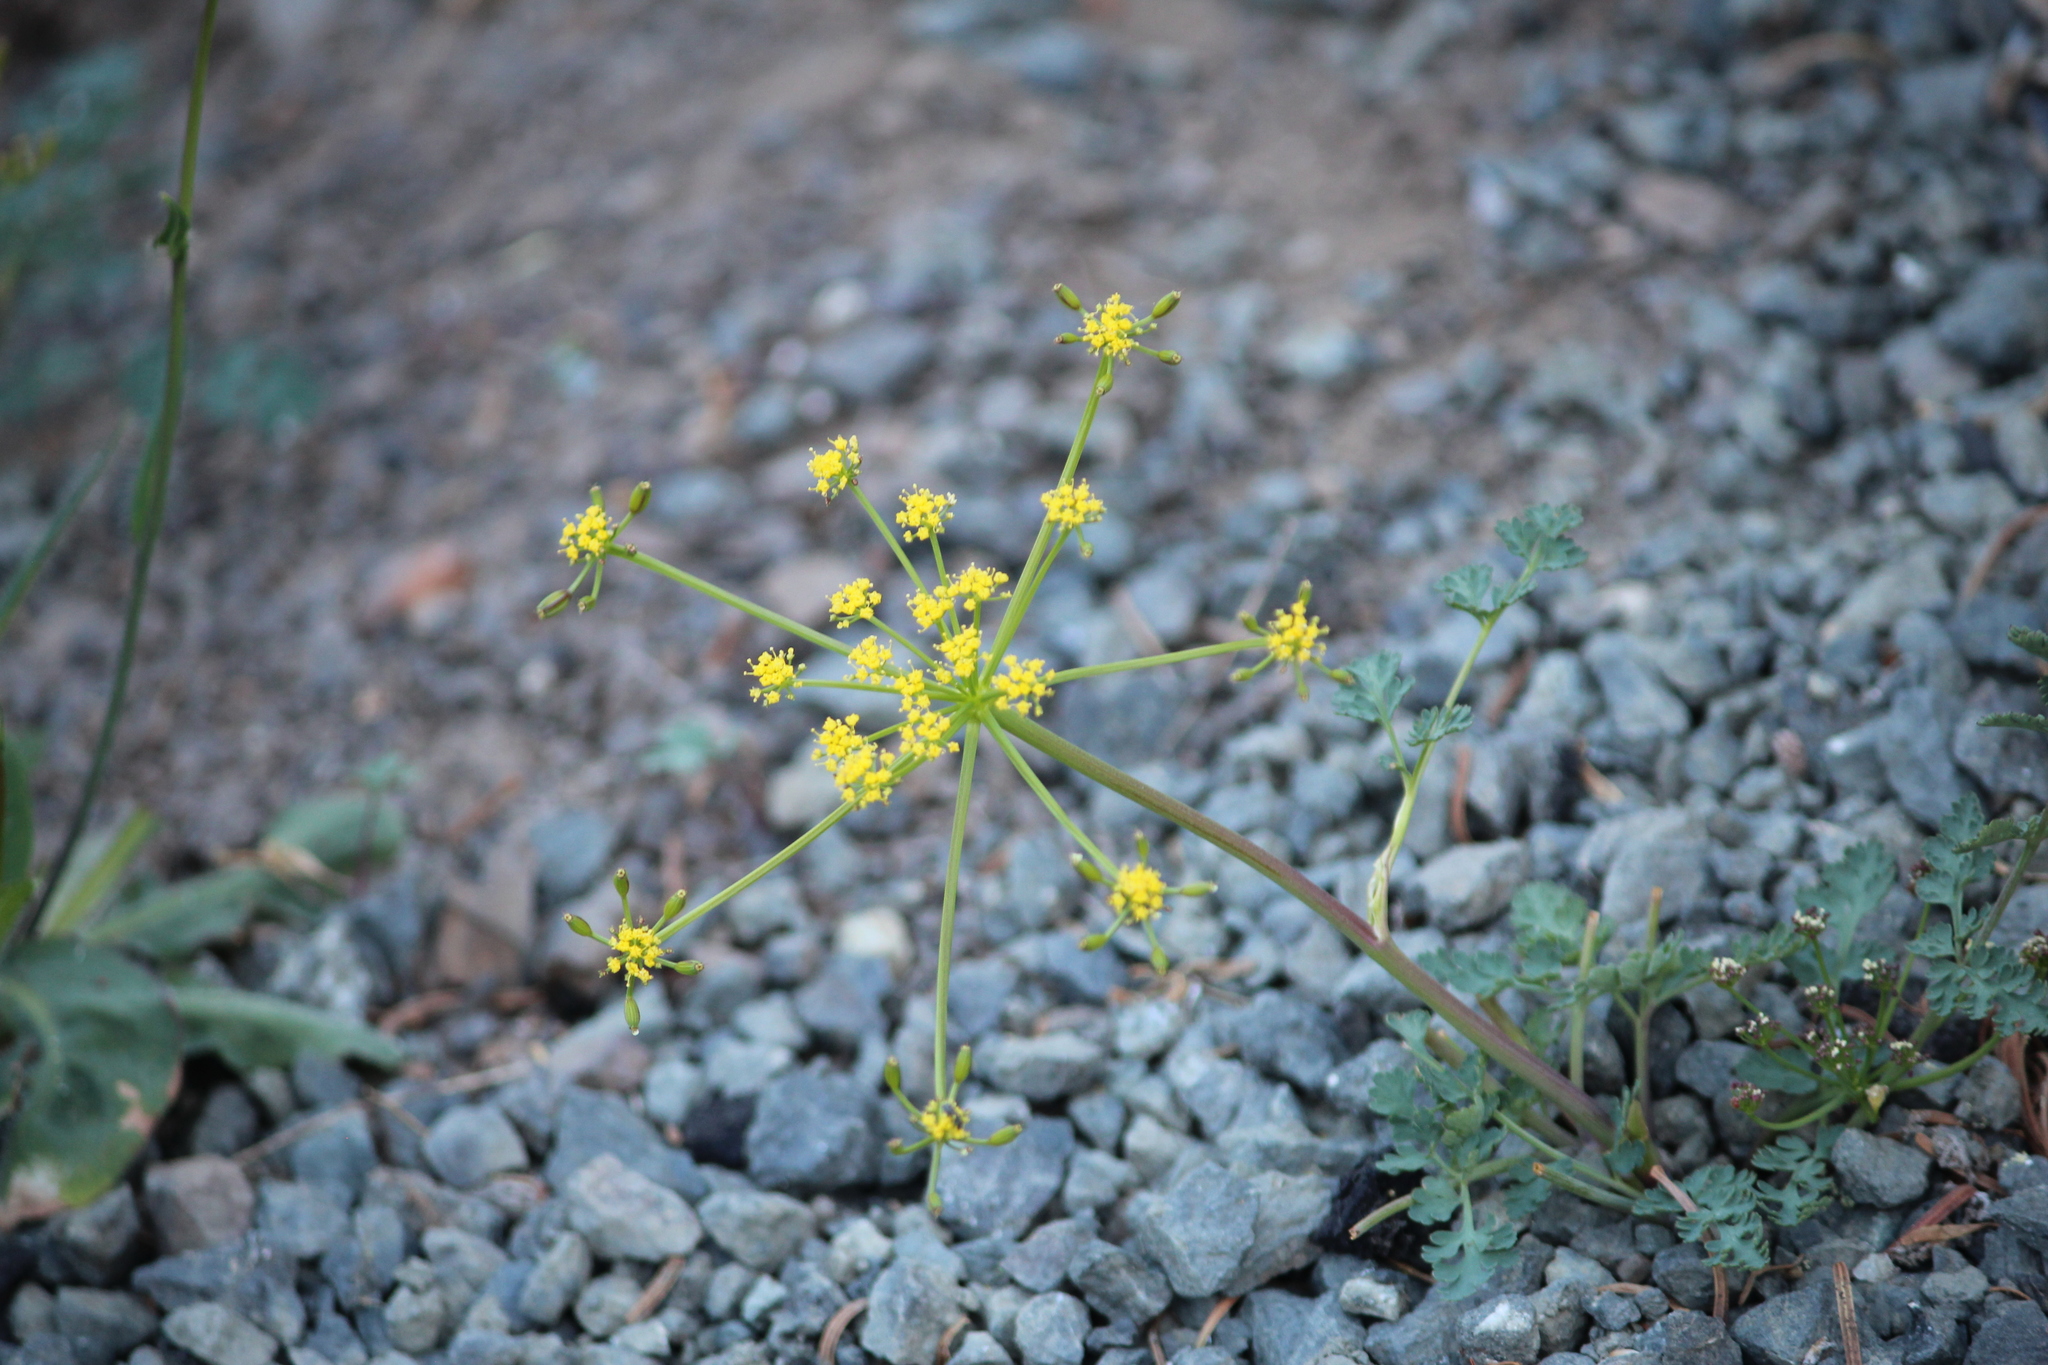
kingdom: Plantae
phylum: Tracheophyta
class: Magnoliopsida
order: Apiales
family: Apiaceae
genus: Lomatium
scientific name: Lomatium martindalei
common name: Cascade desert-parsley
